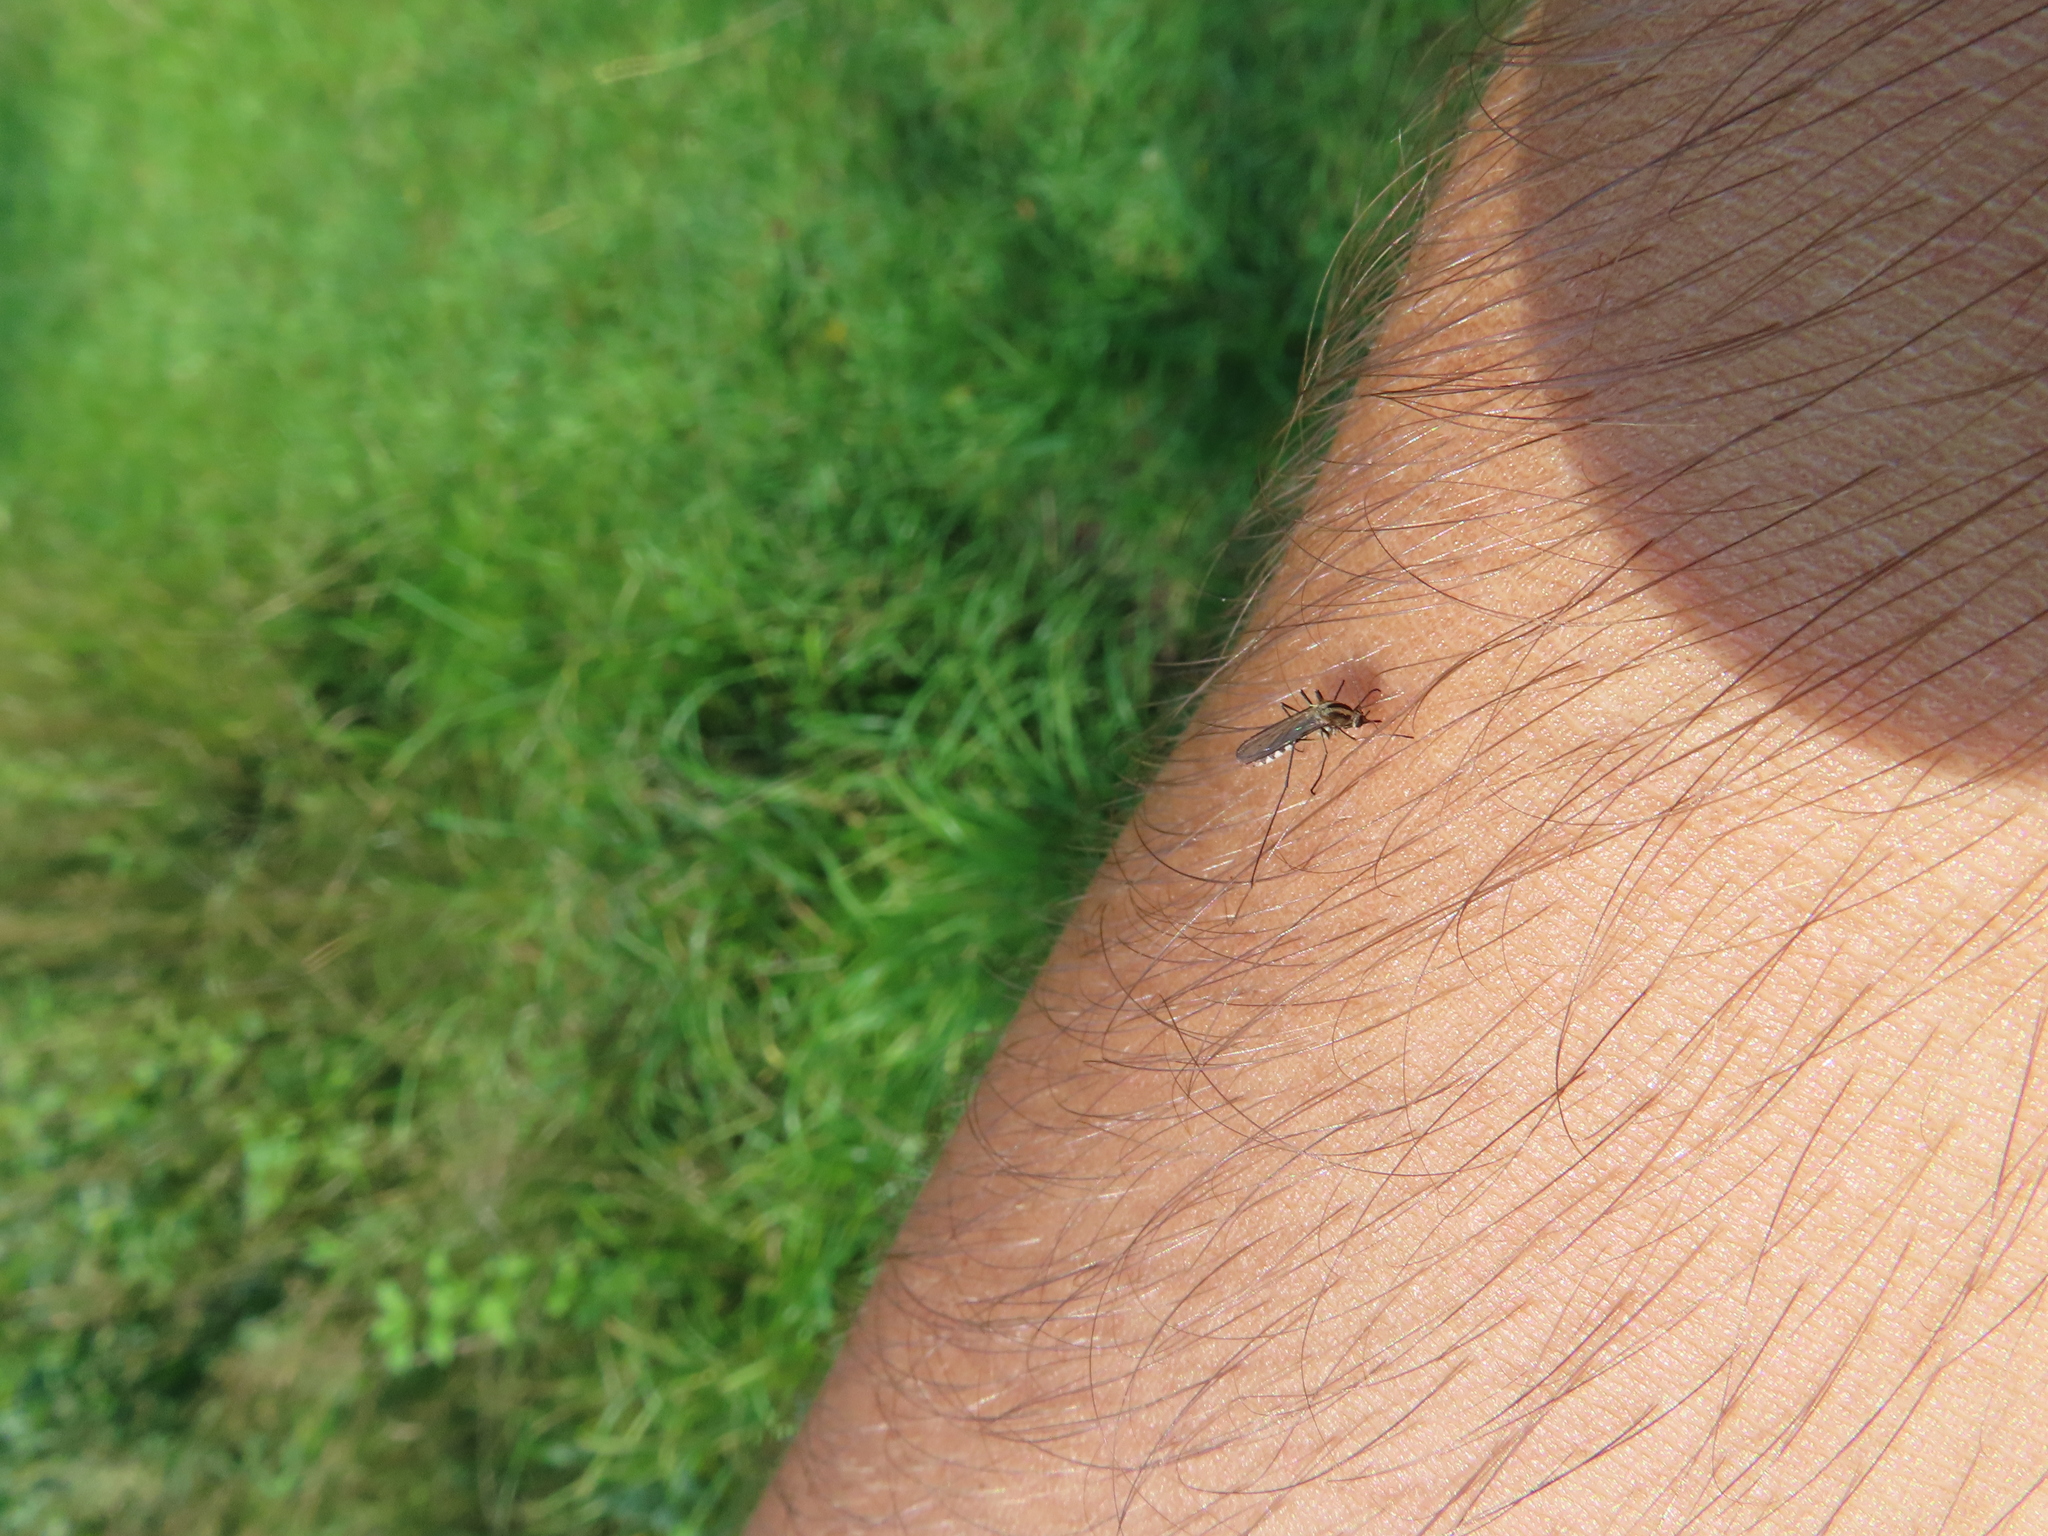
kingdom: Animalia
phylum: Arthropoda
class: Insecta
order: Diptera
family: Culicidae
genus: Aedes
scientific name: Aedes trivittatus
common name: Plains floodwater mosquito
